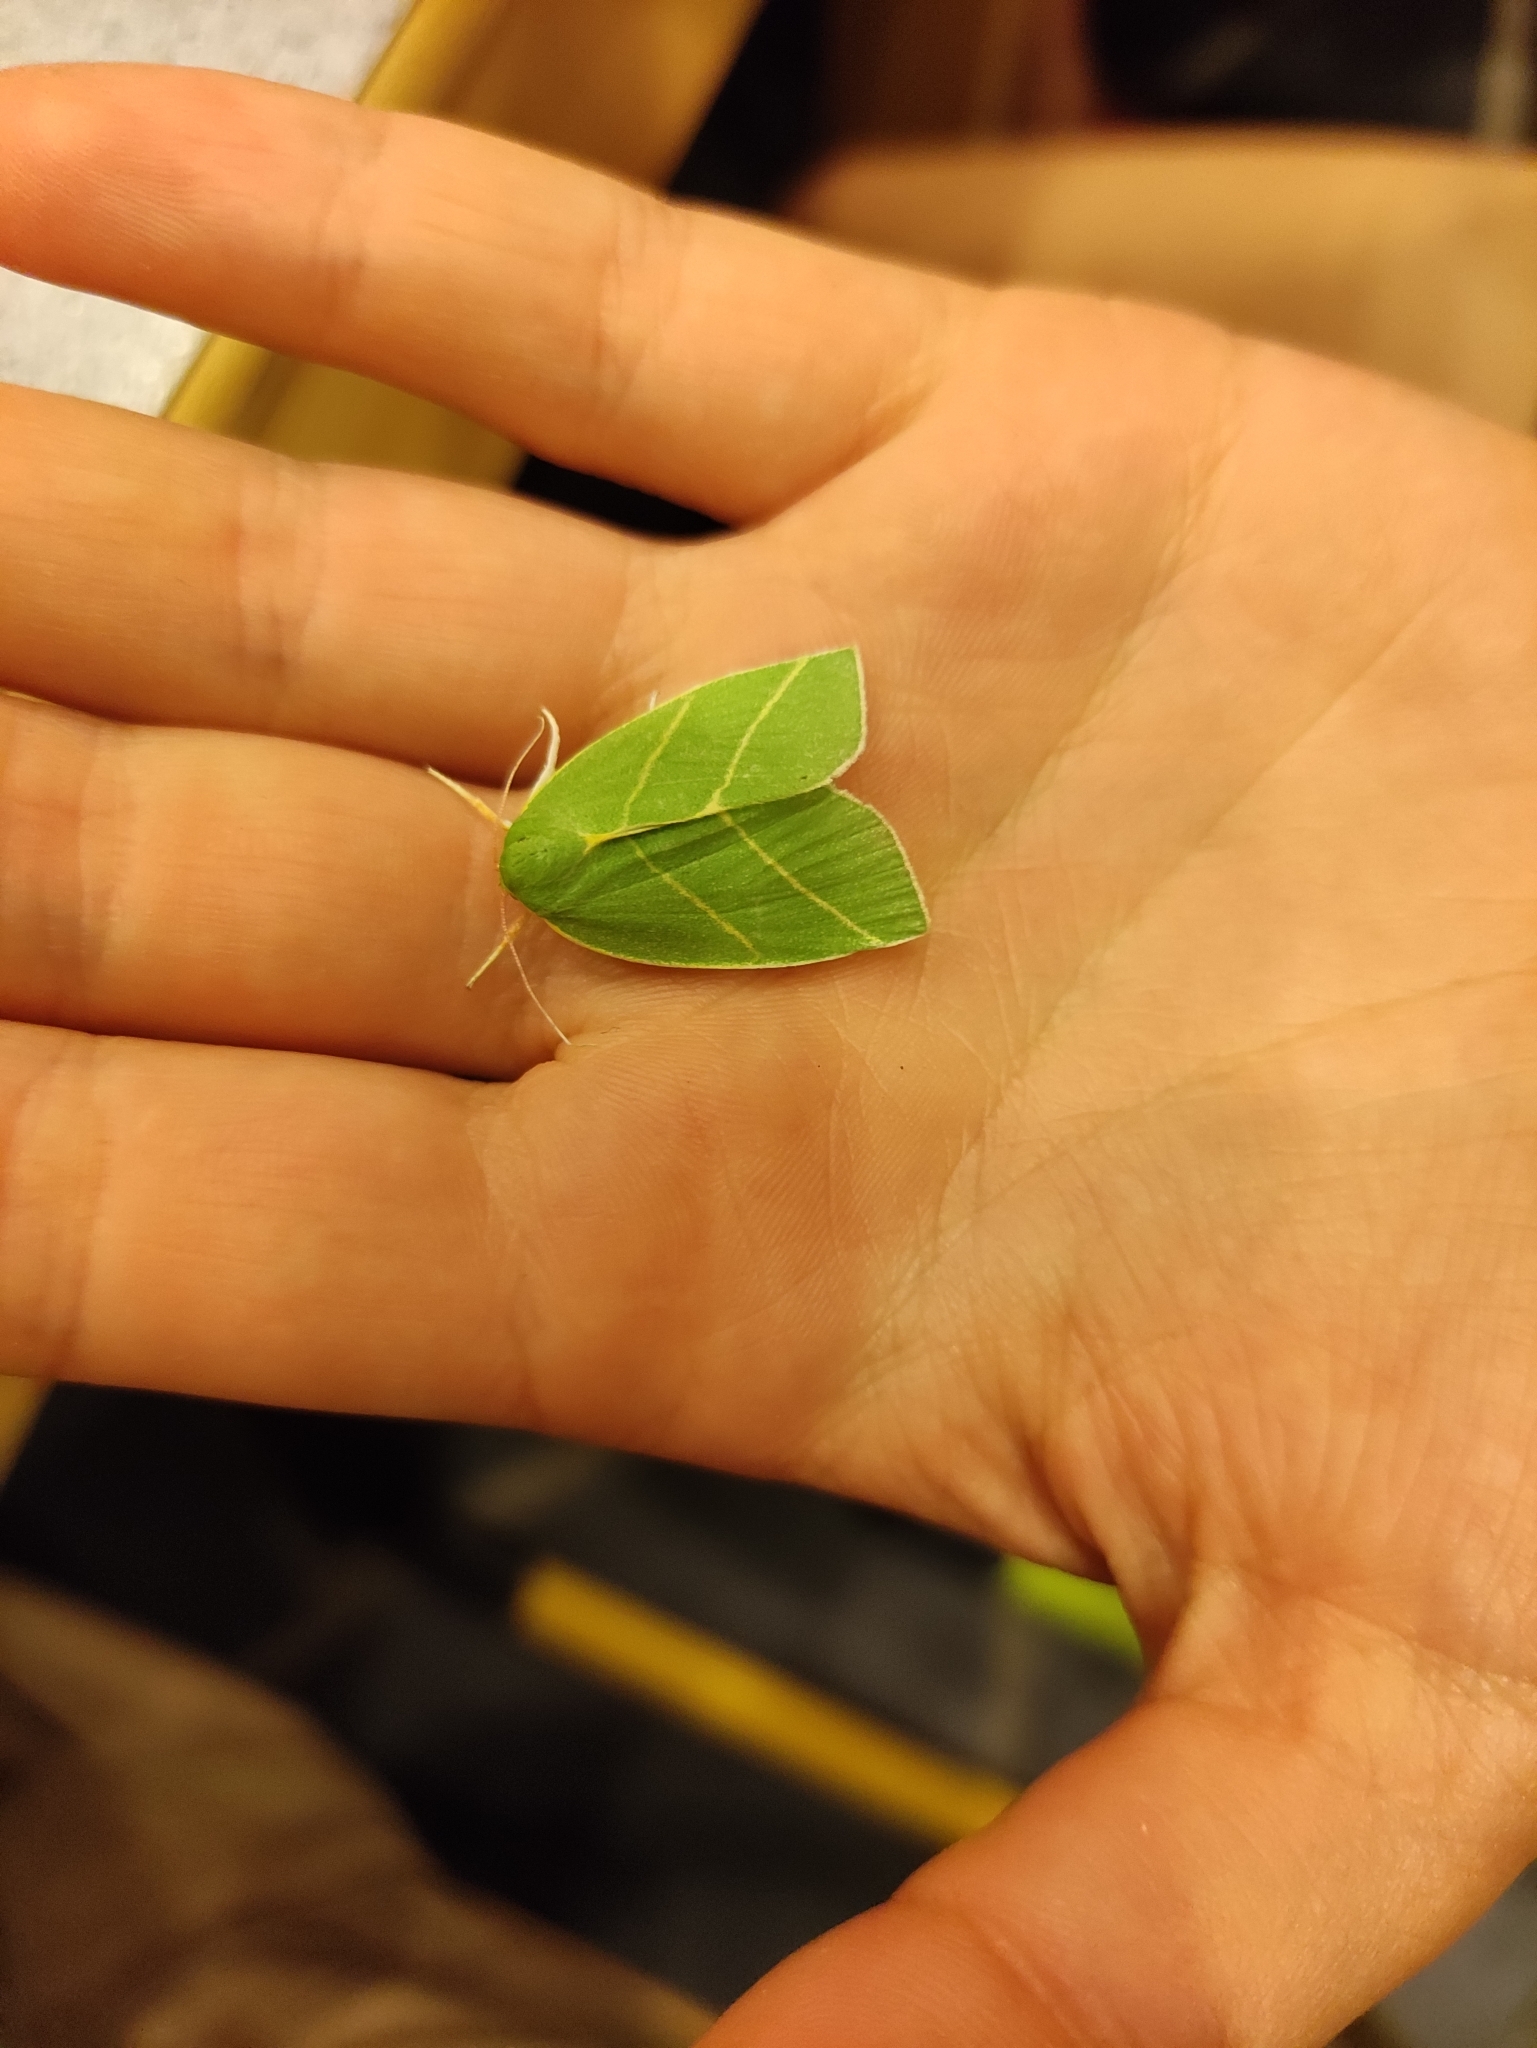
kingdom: Animalia
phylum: Arthropoda
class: Insecta
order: Lepidoptera
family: Nolidae
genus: Bena
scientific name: Bena bicolorana
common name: Scarce silver-lines
